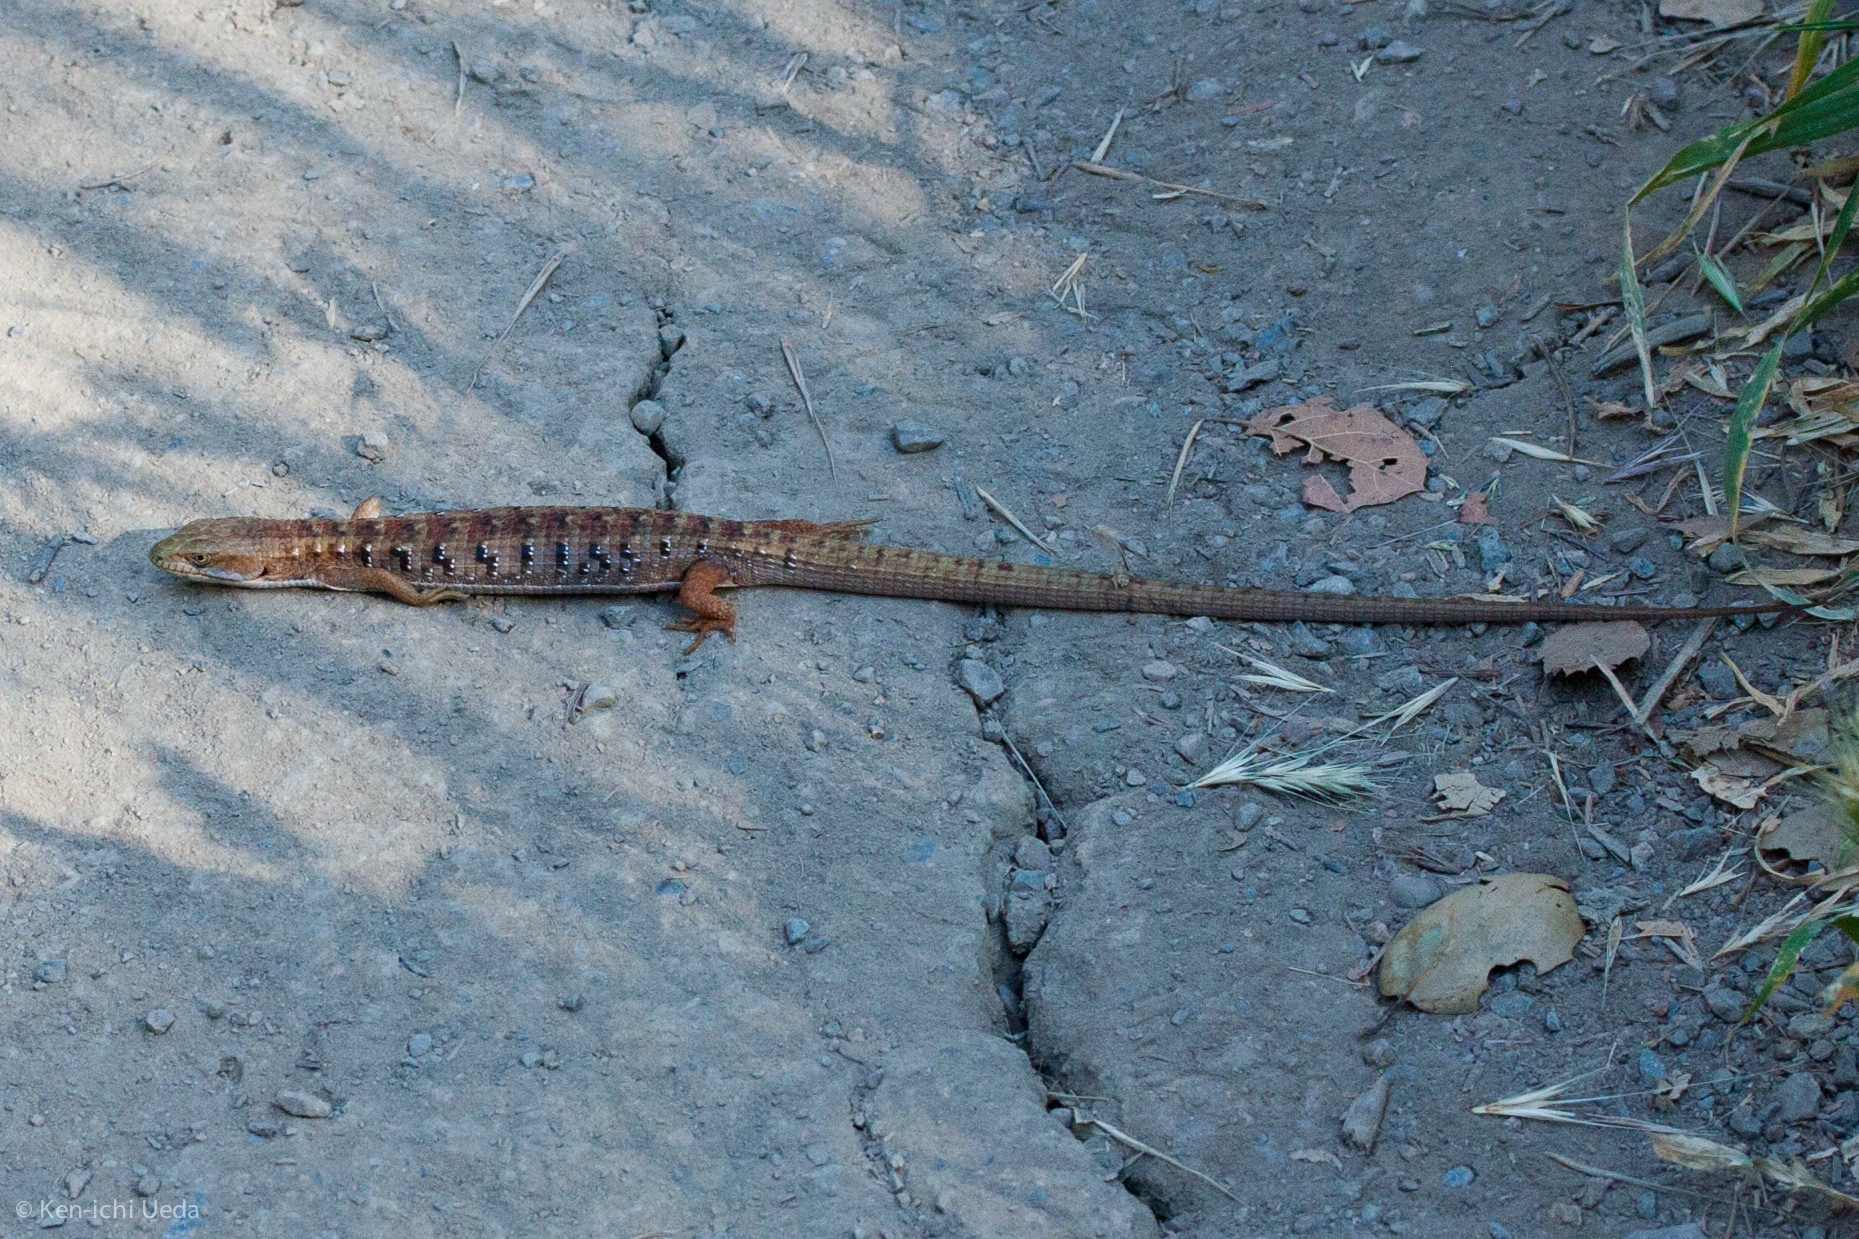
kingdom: Animalia
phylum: Chordata
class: Squamata
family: Anguidae
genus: Elgaria
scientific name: Elgaria multicarinata
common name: Southern alligator lizard
